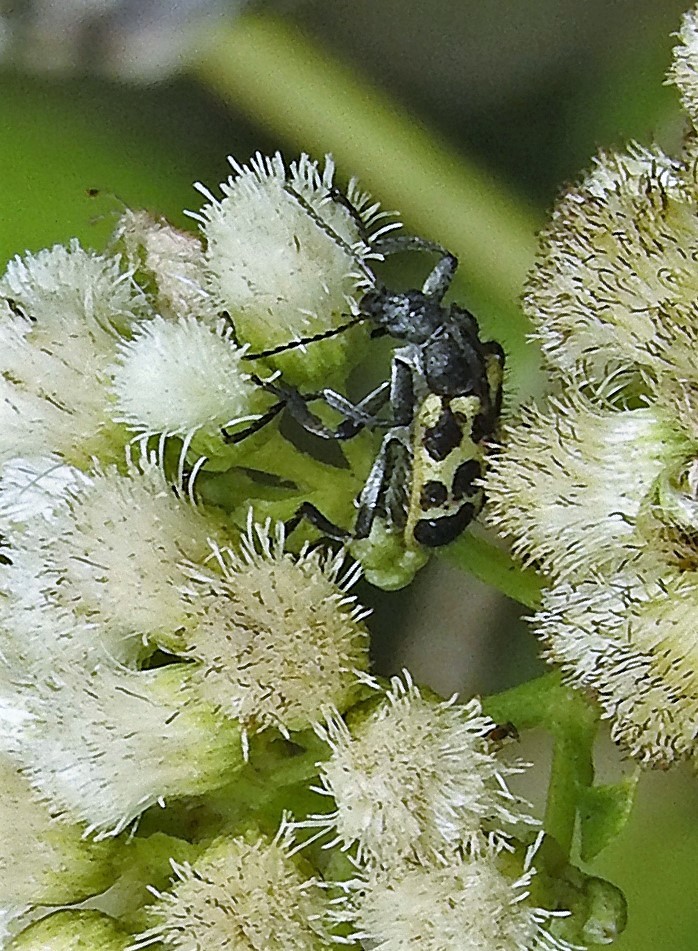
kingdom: Animalia
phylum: Arthropoda
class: Insecta
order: Coleoptera
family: Melyridae
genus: Astylus
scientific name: Astylus atromaculatus
